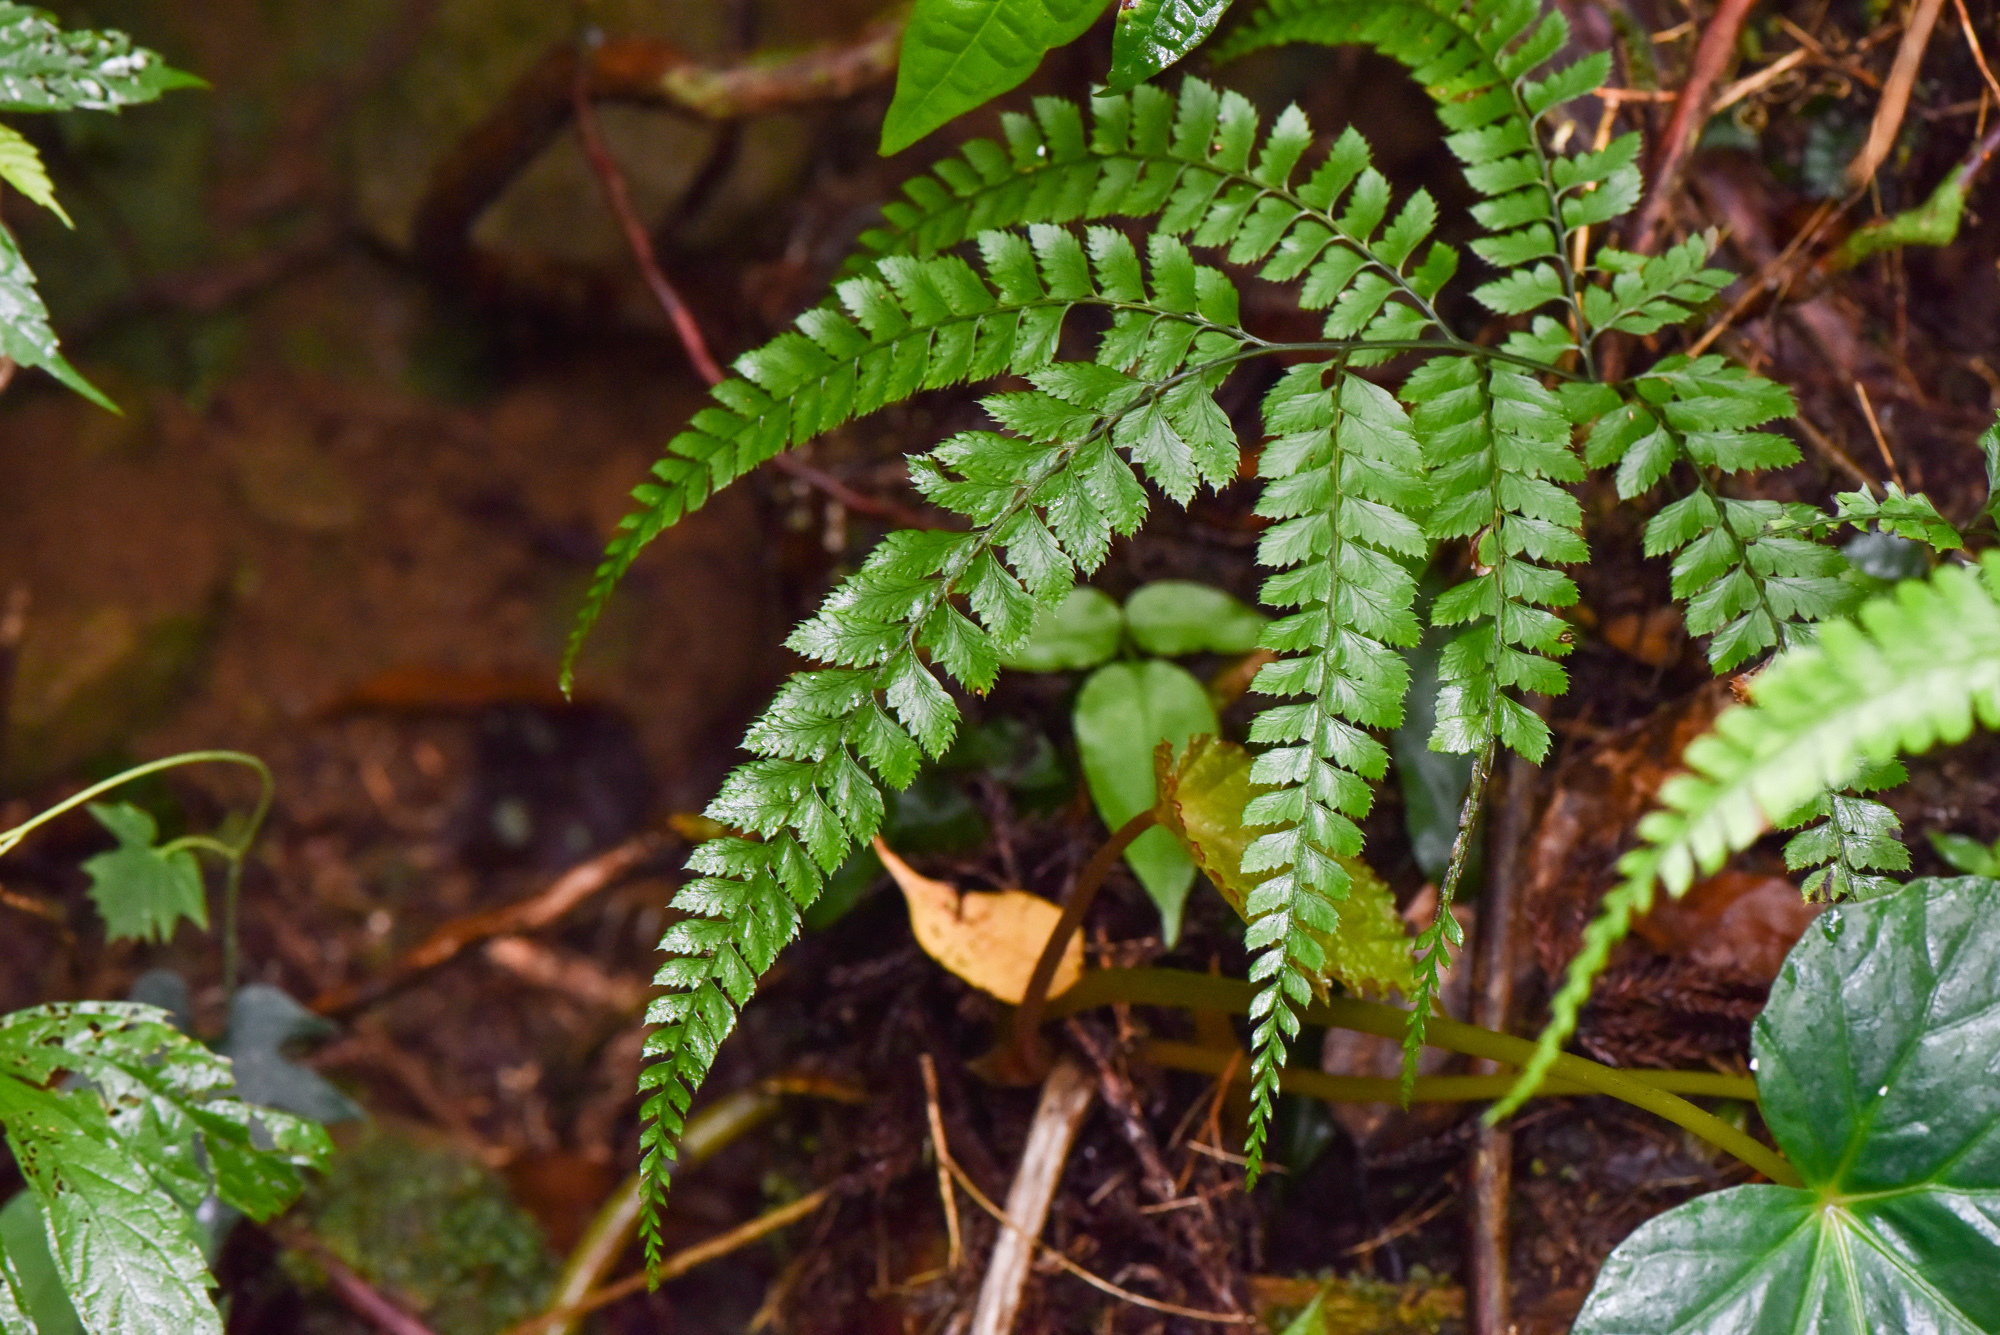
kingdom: Plantae
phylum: Tracheophyta
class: Polypodiopsida
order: Polypodiales
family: Dryopteridaceae
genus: Arachniodes
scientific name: Arachniodes rhomboidea
